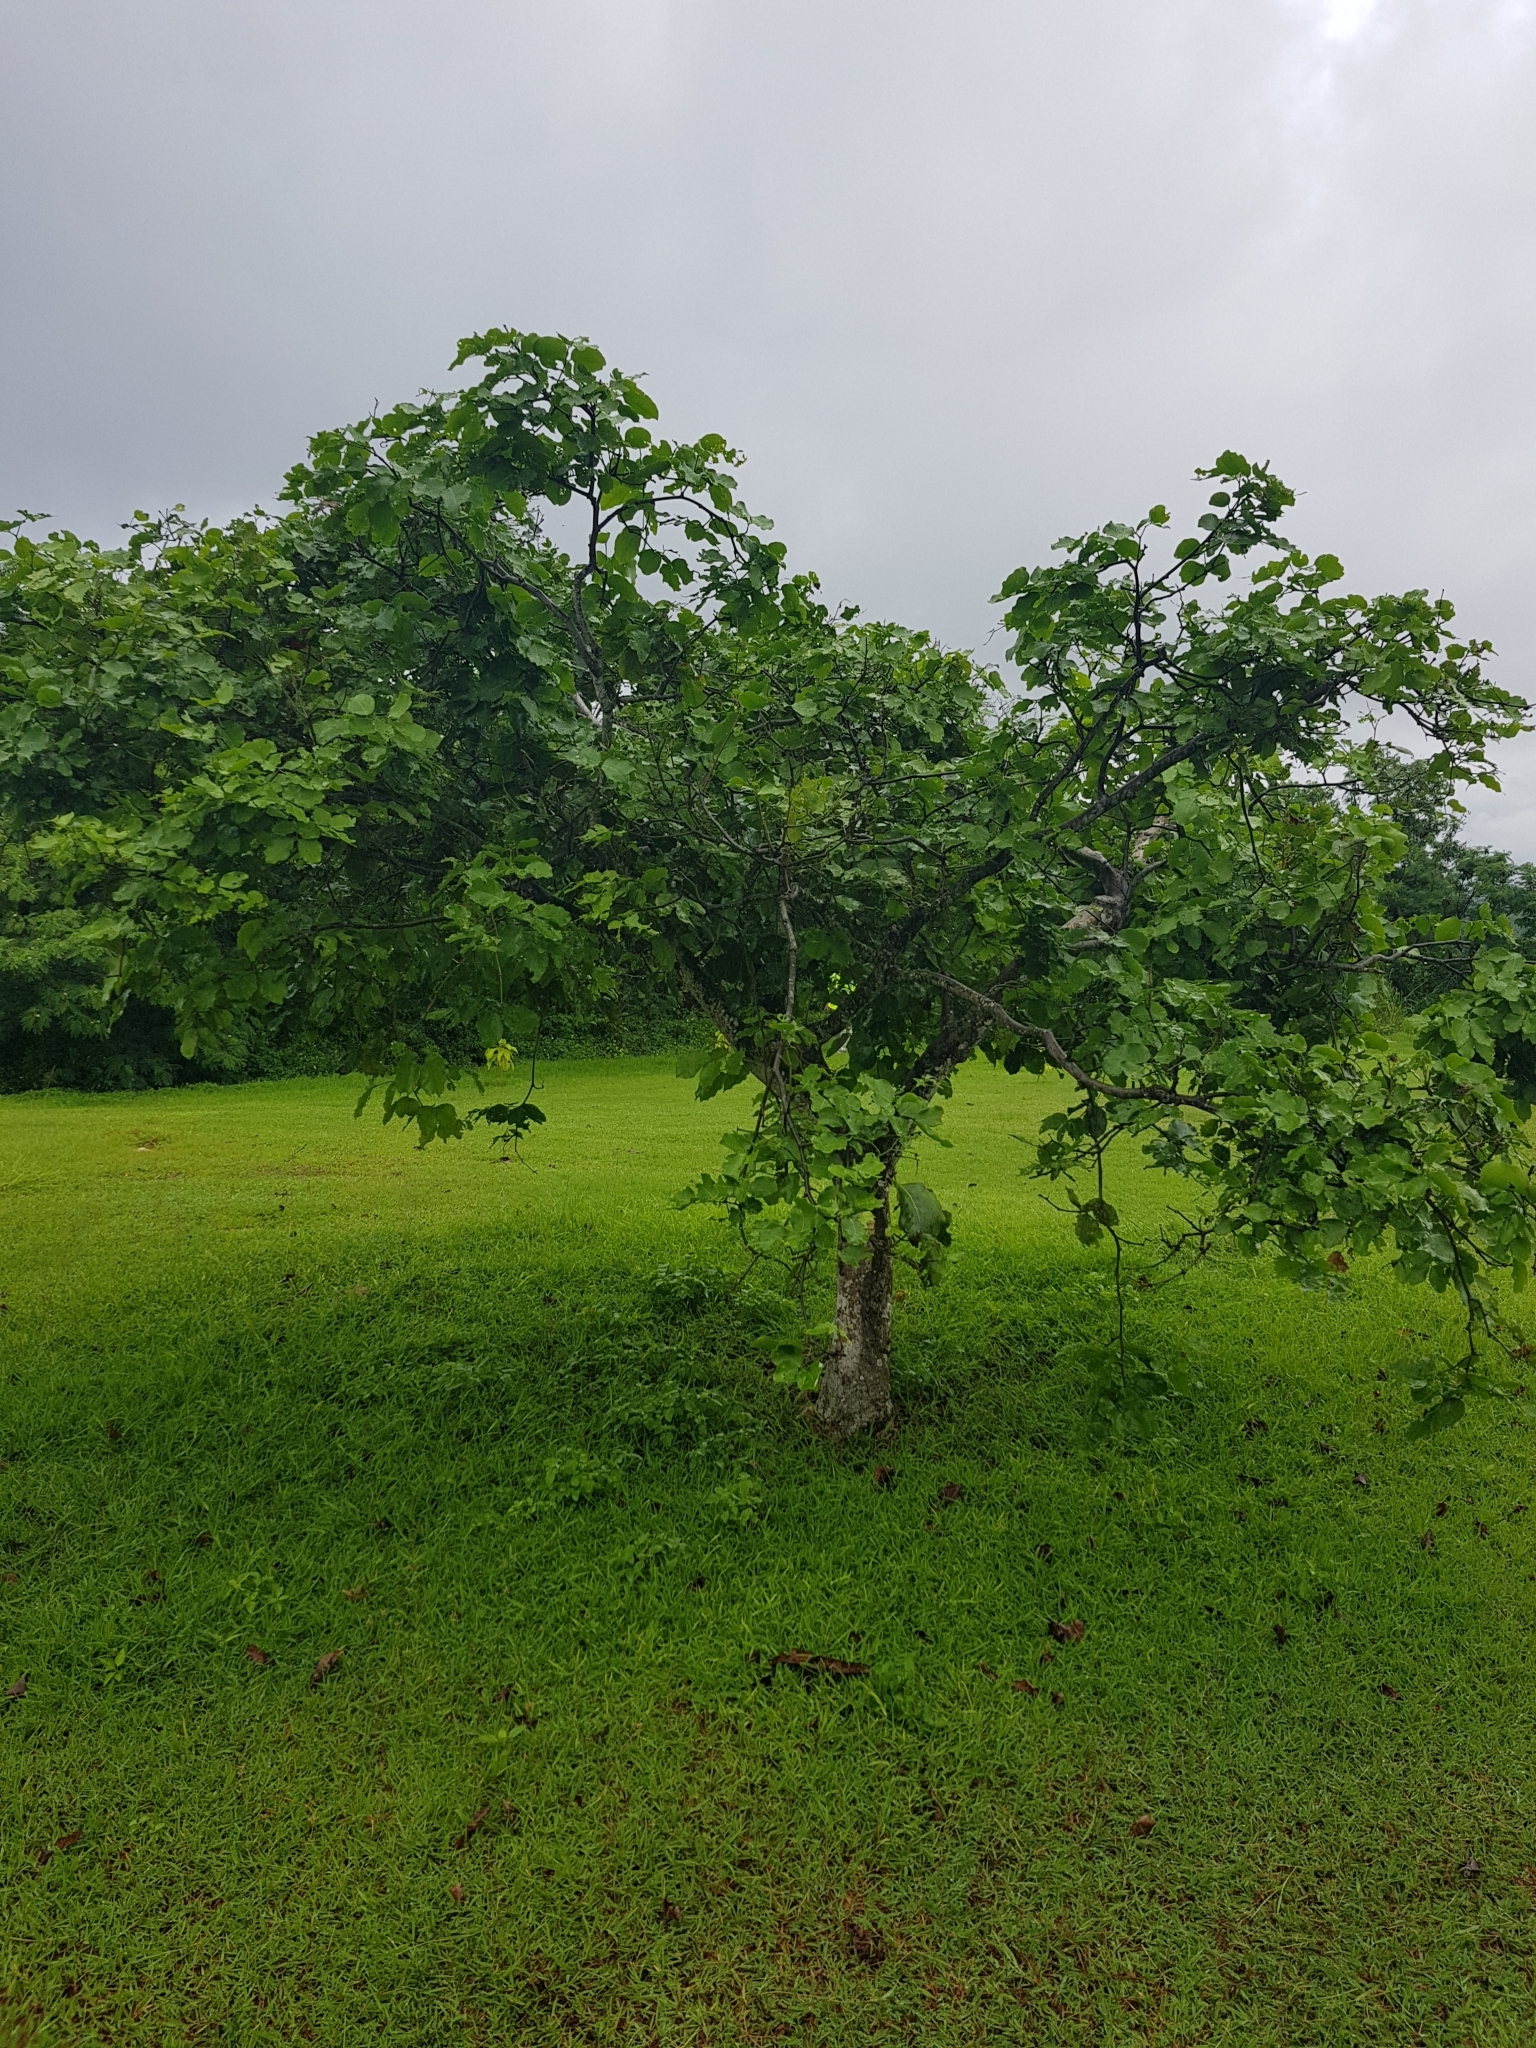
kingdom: Plantae
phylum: Tracheophyta
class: Magnoliopsida
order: Fabales
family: Fabaceae
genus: Intsia
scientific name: Intsia bijuga
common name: Moluccan ironwood
